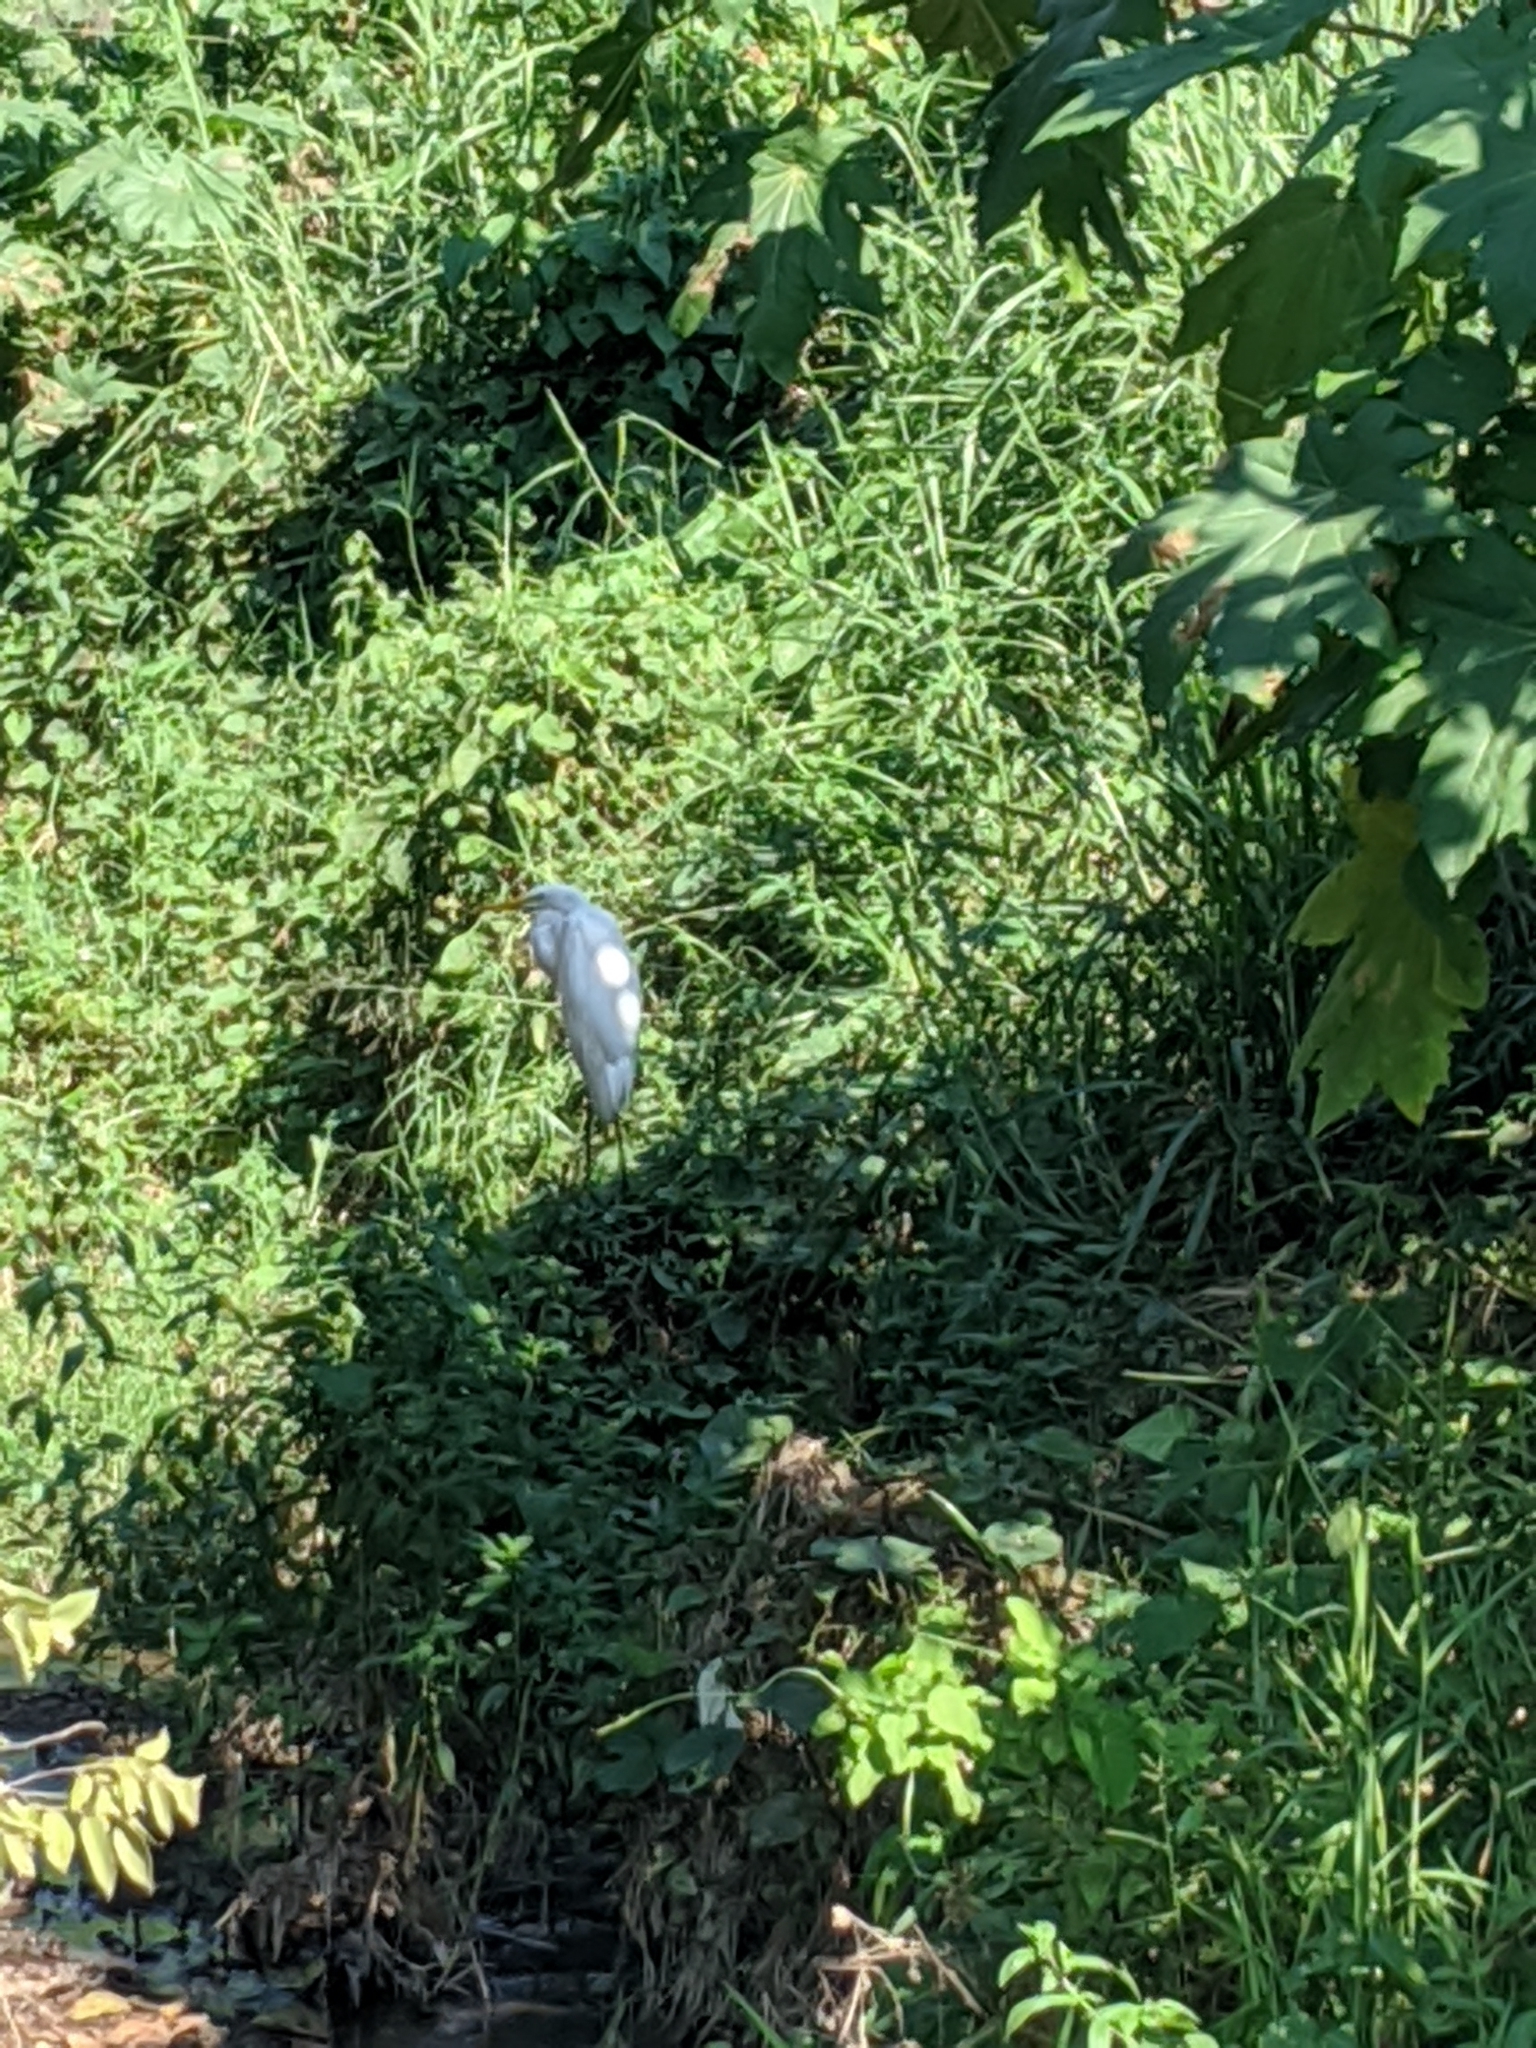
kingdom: Animalia
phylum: Chordata
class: Aves
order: Pelecaniformes
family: Ardeidae
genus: Egretta
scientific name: Egretta caerulea
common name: Little blue heron
